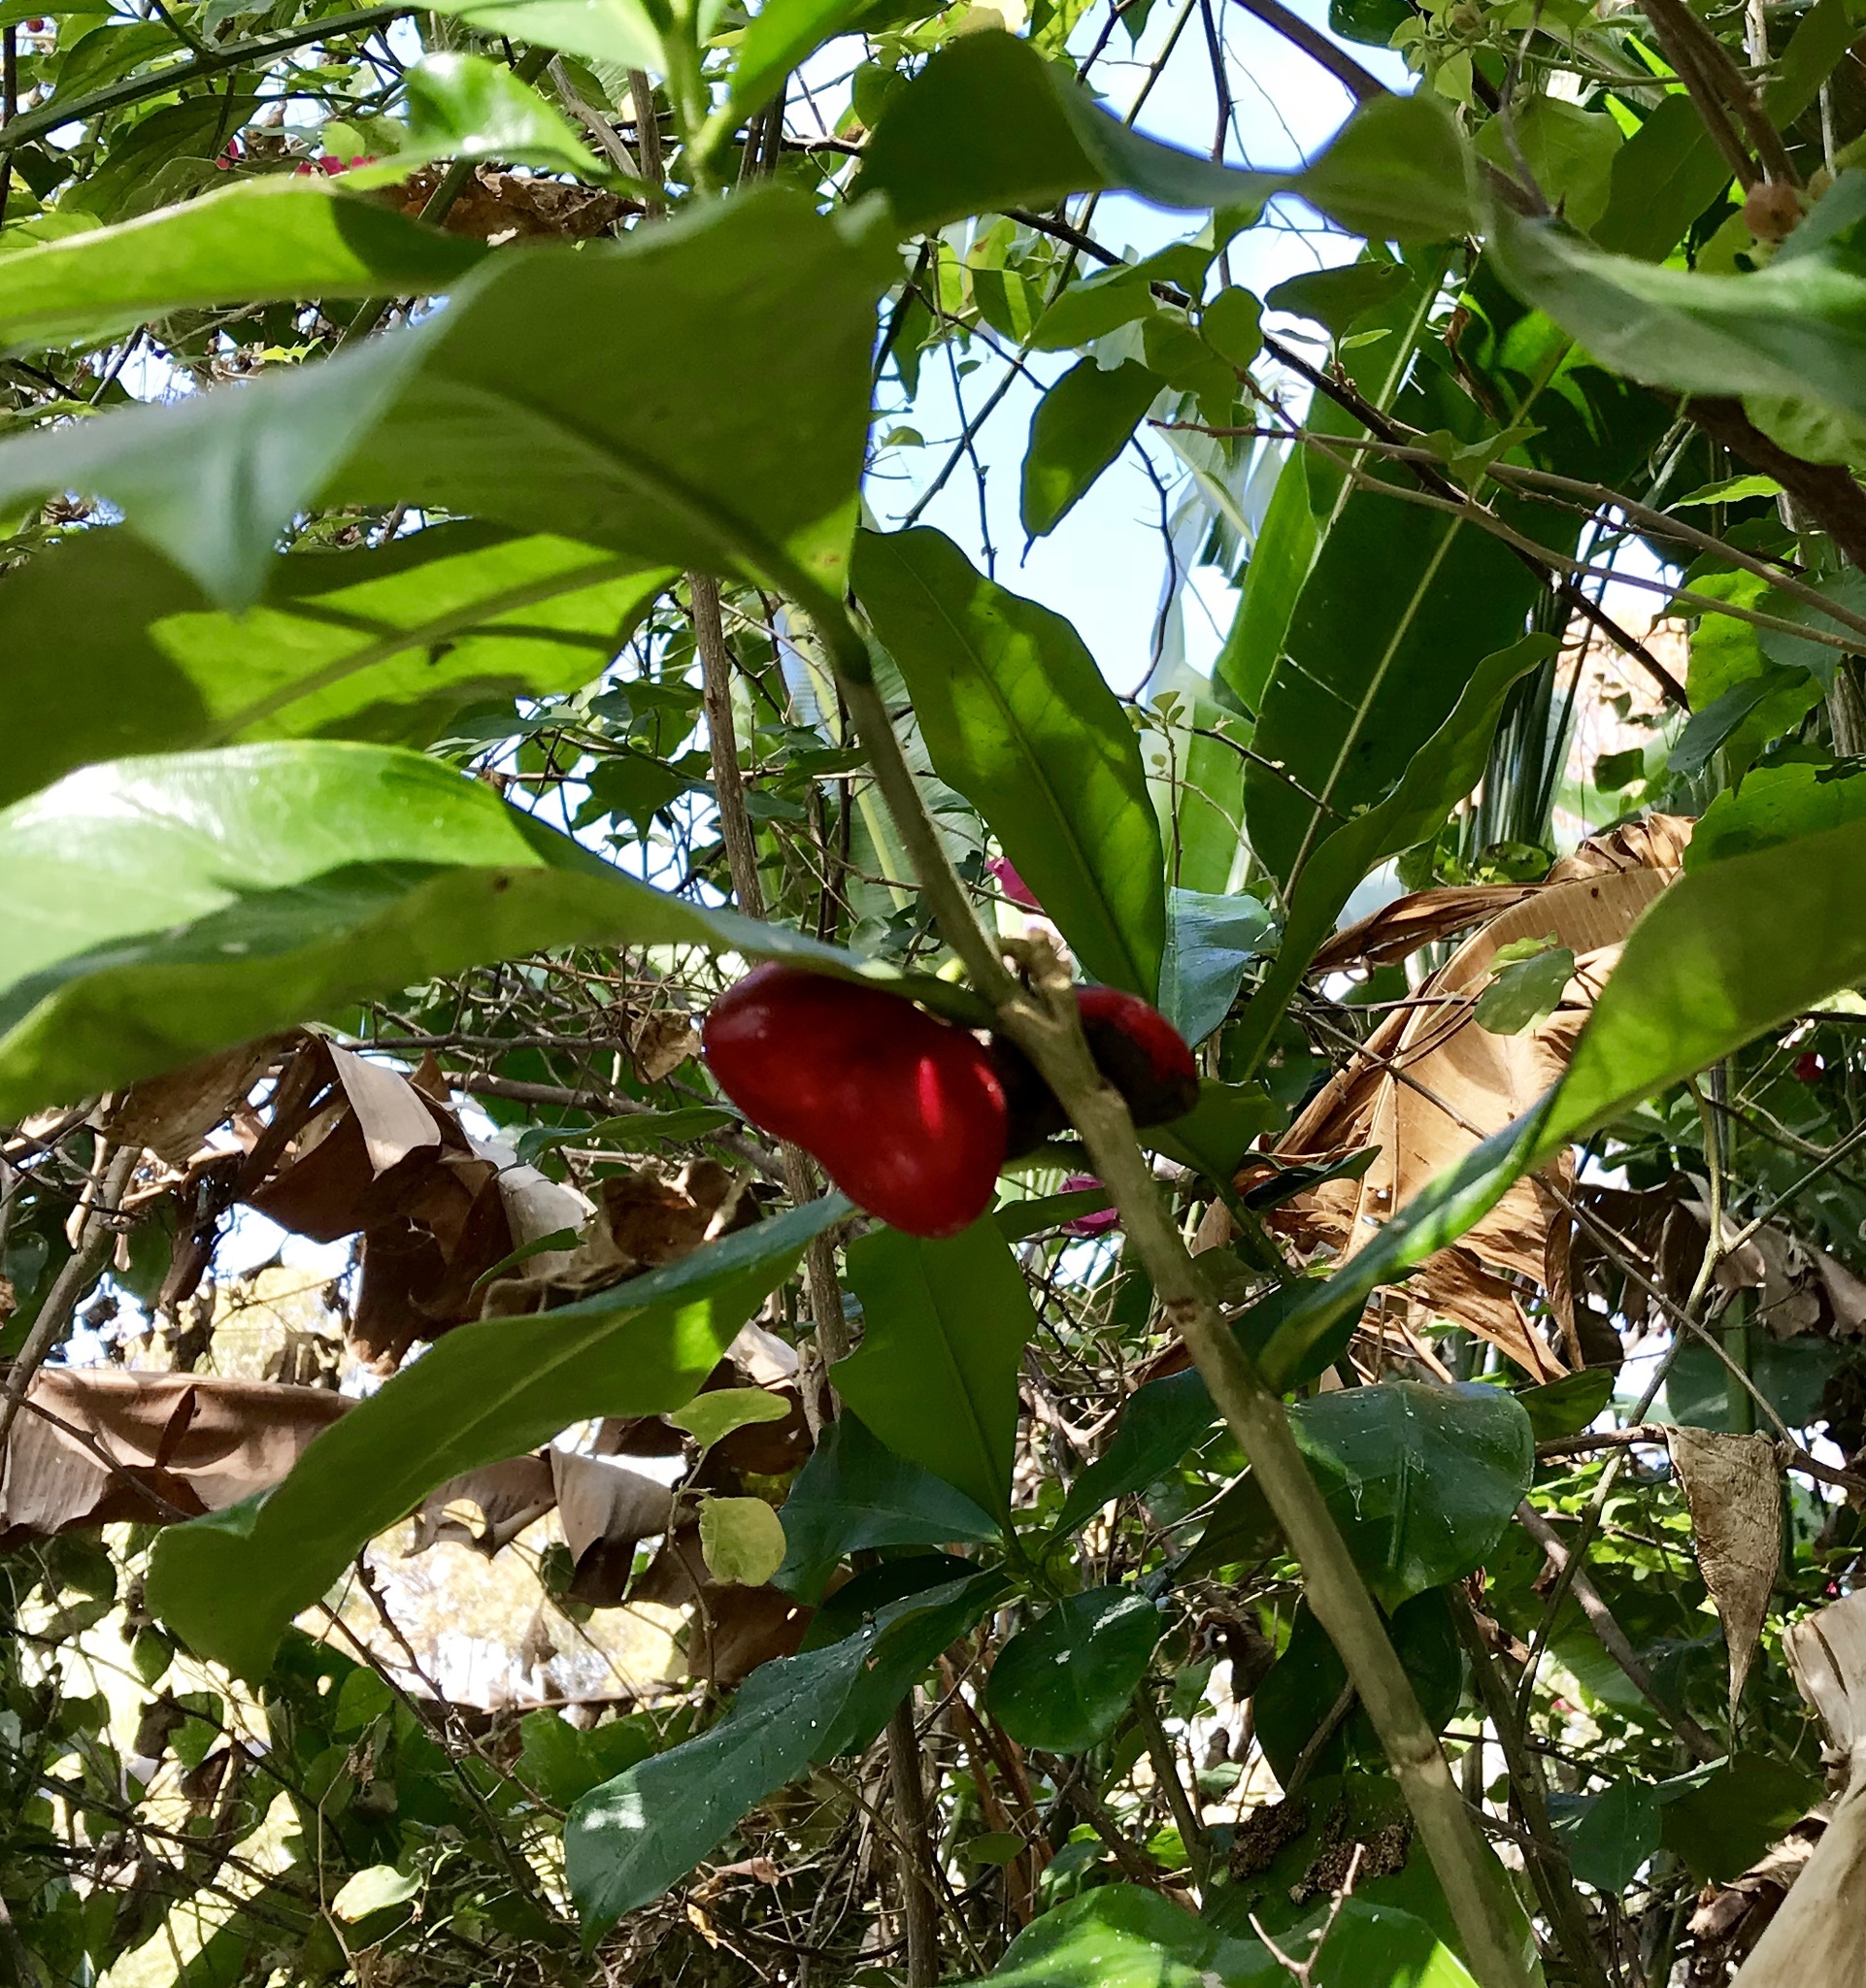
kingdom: Plantae
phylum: Tracheophyta
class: Magnoliopsida
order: Gentianales
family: Apocynaceae
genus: Thevetia
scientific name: Thevetia ahouai
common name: Broadleaf thevetia
